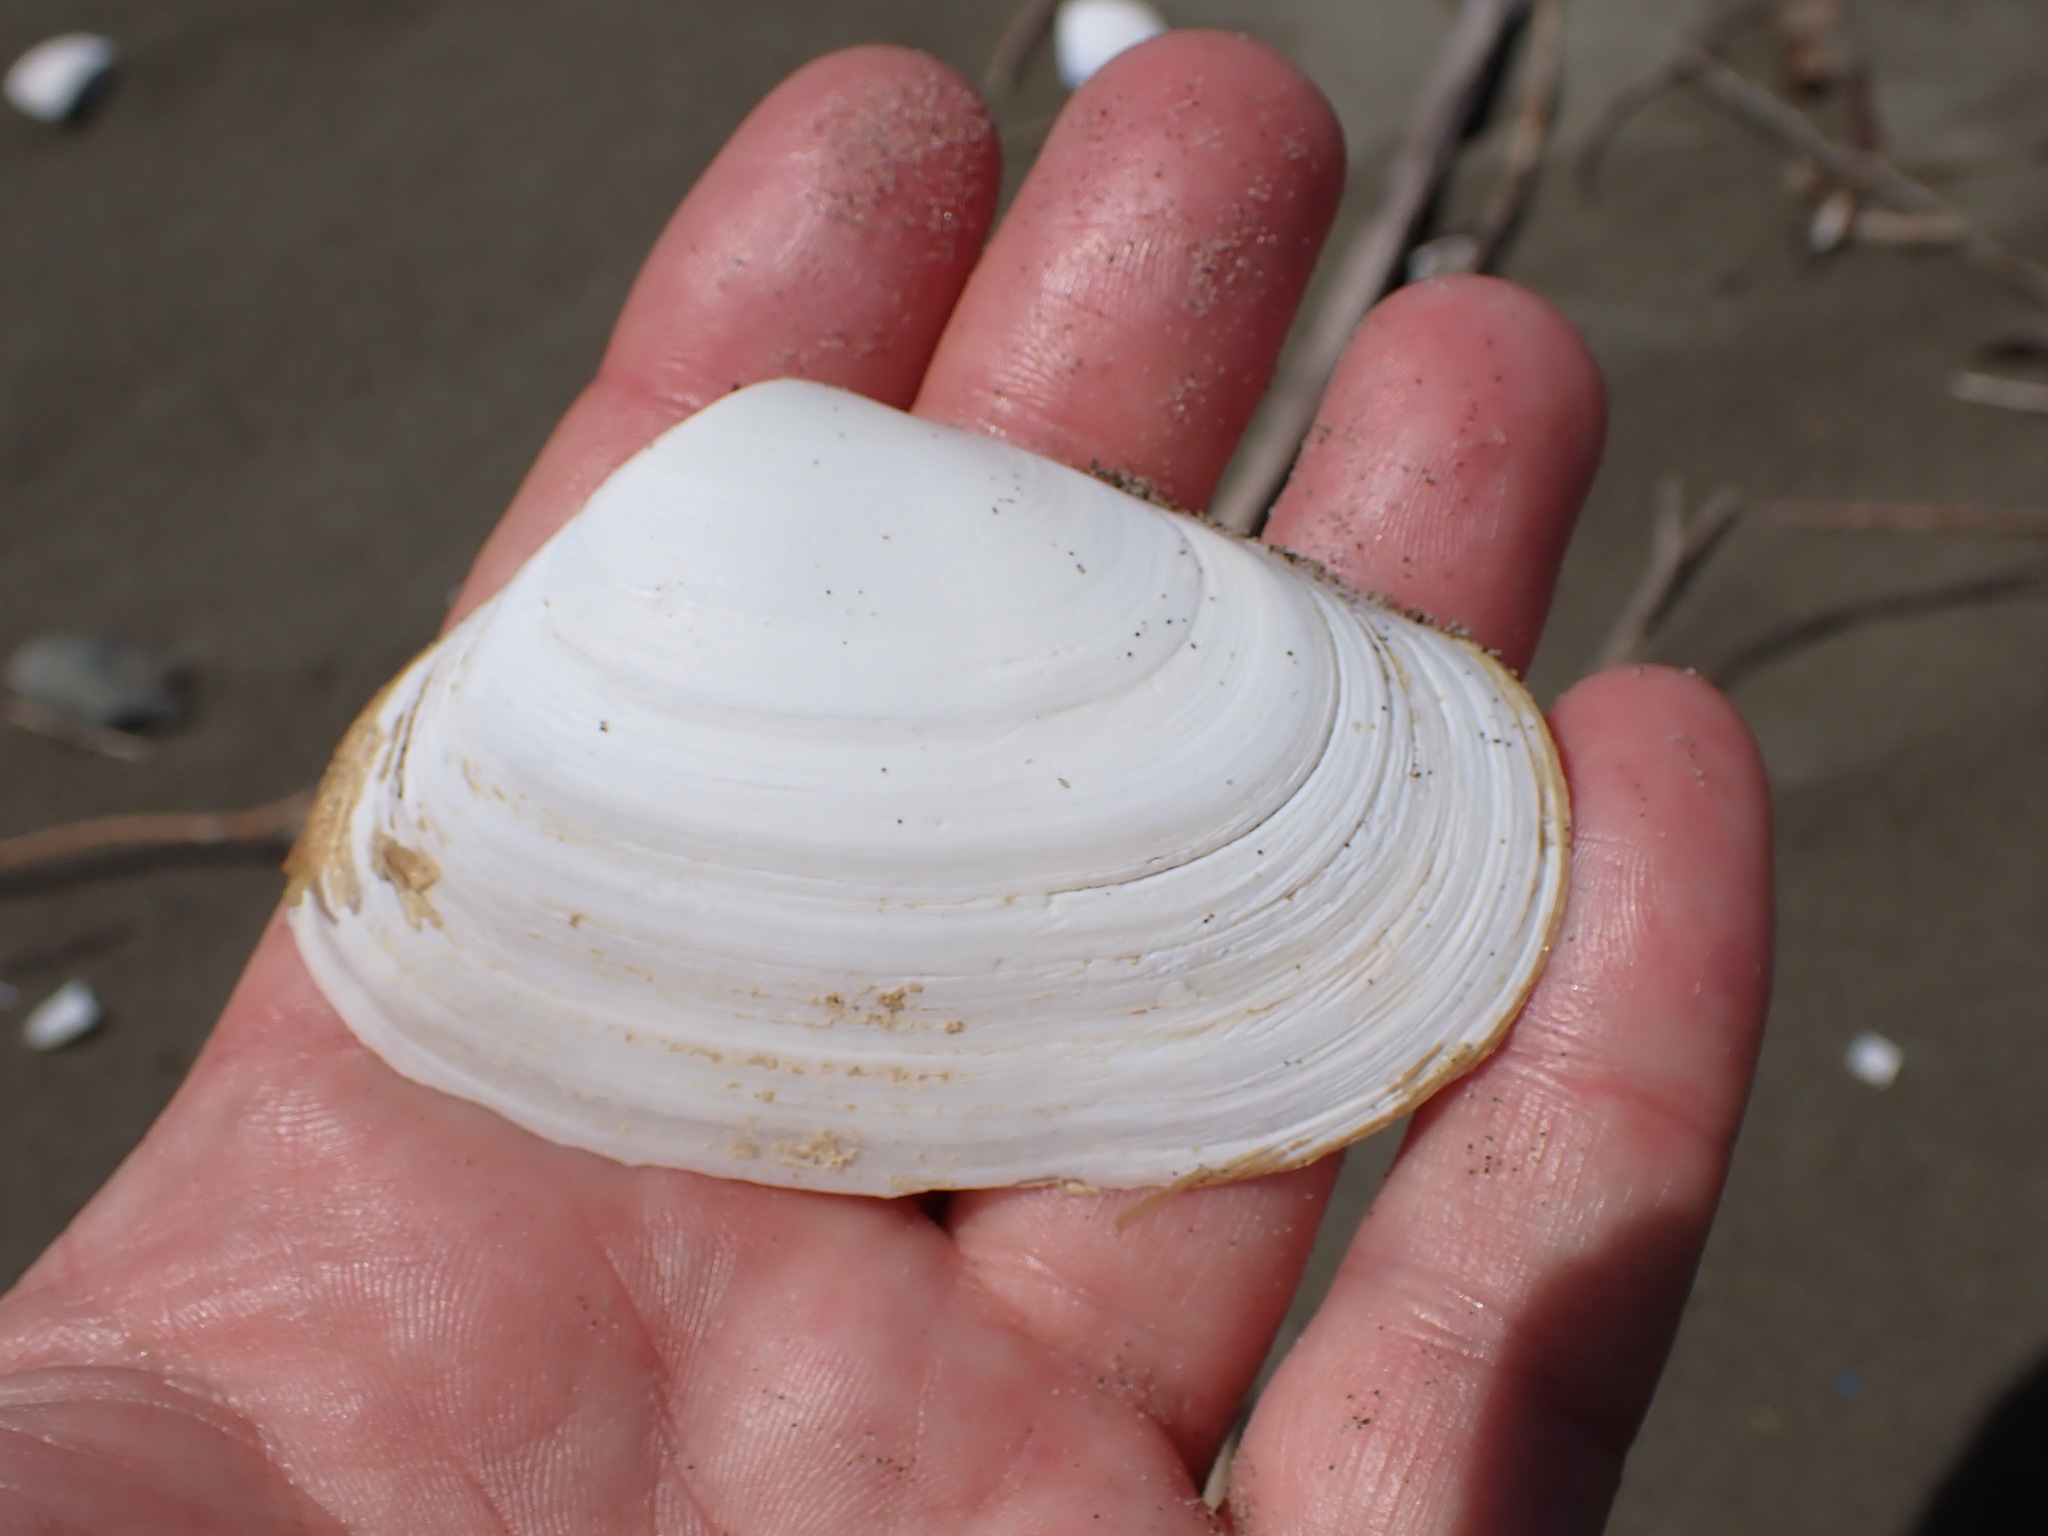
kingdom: Animalia
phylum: Mollusca
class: Bivalvia
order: Venerida
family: Mesodesmatidae
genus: Paphies
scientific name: Paphies donacina
